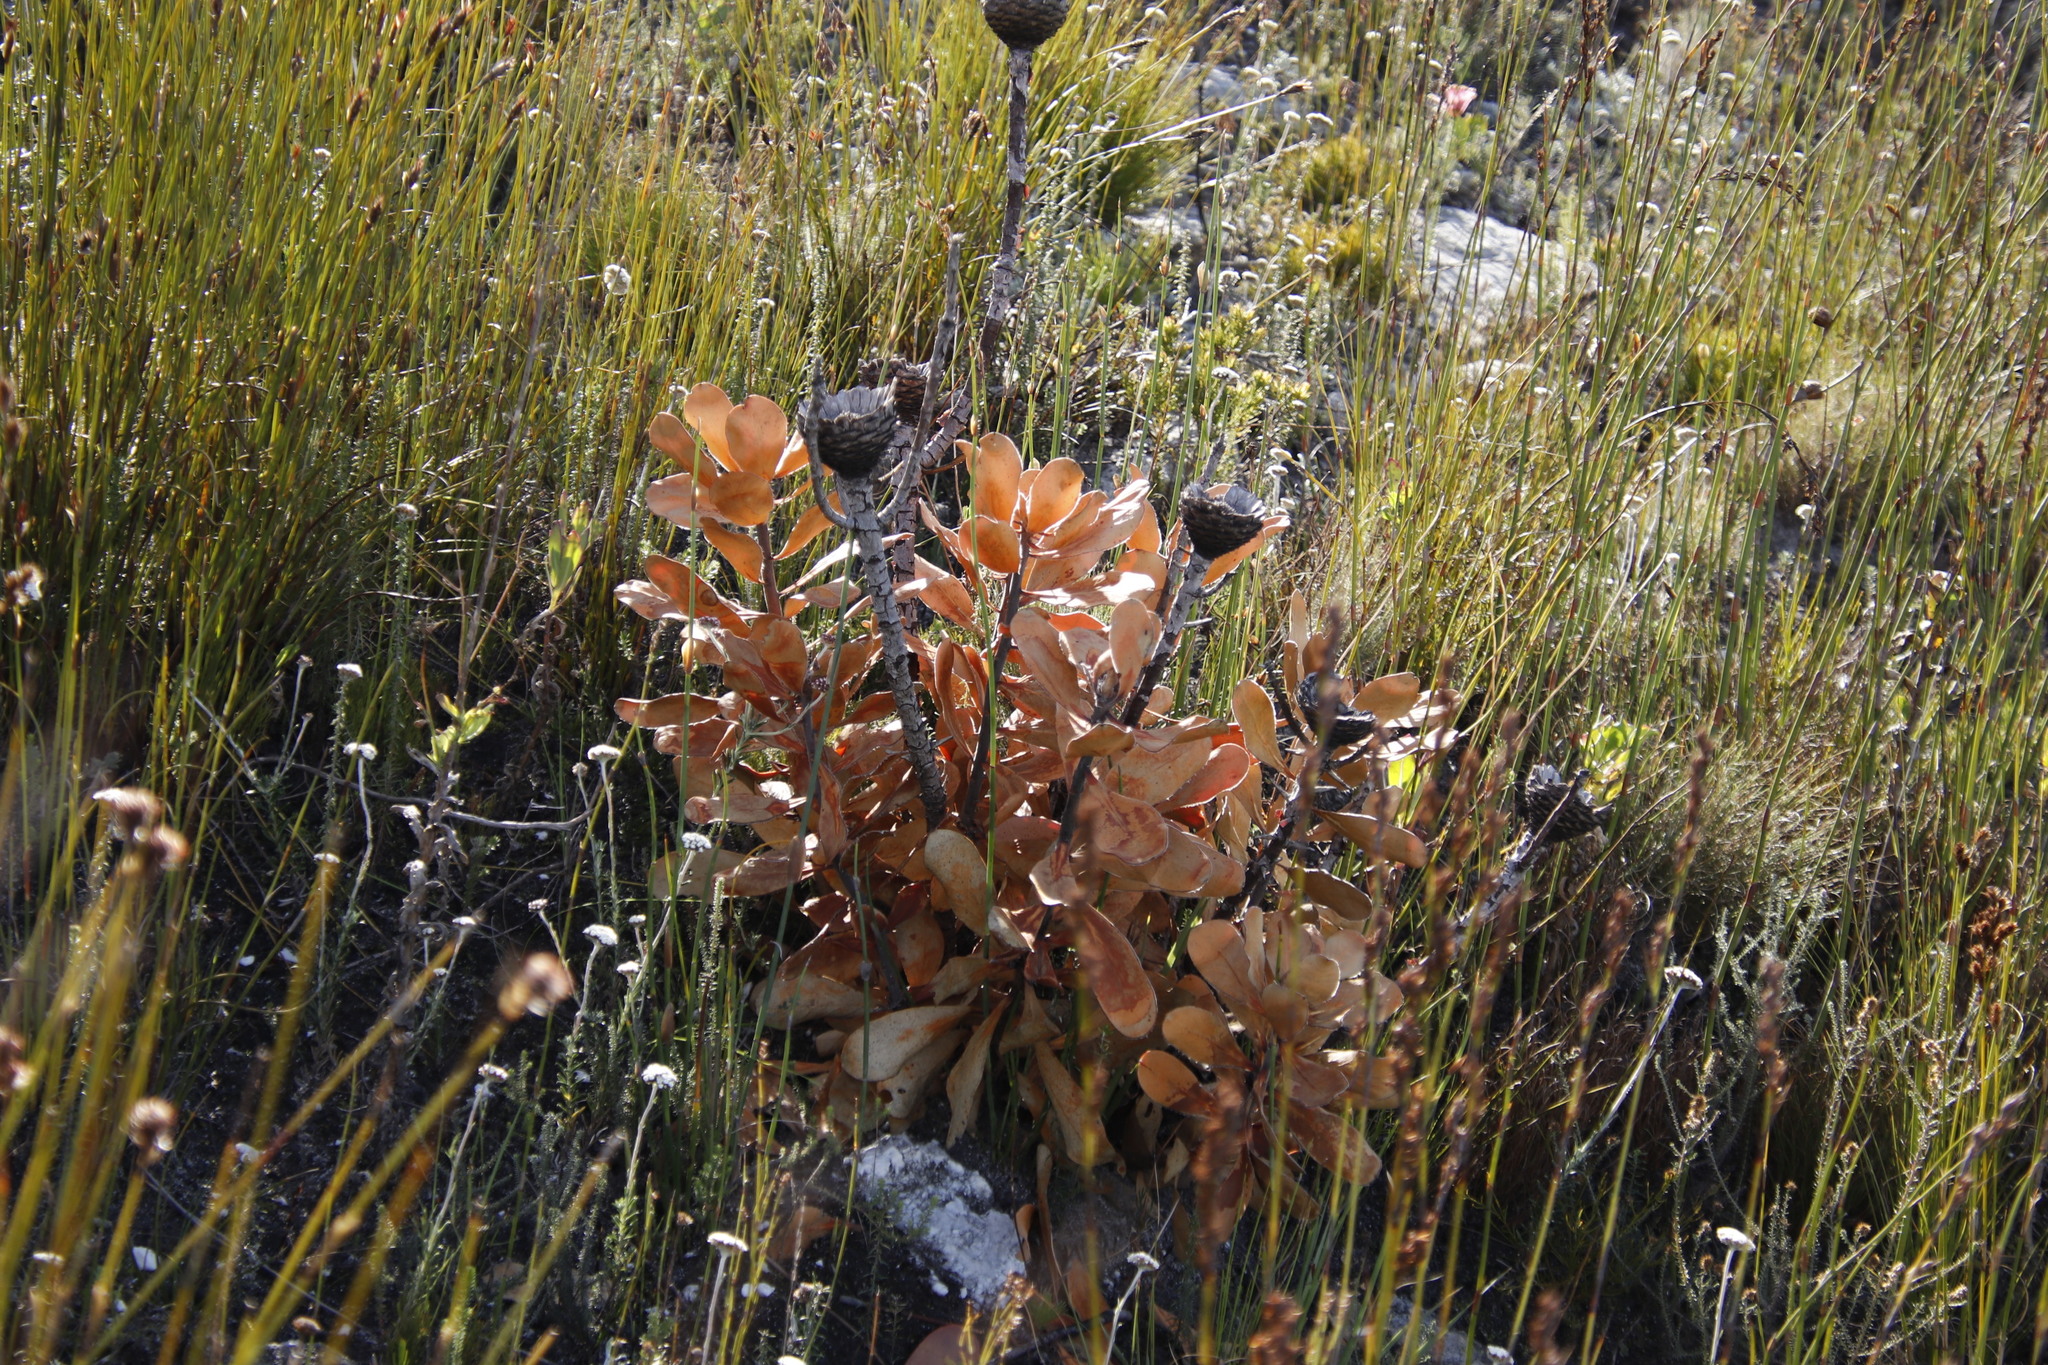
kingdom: Plantae
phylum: Tracheophyta
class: Magnoliopsida
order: Proteales
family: Proteaceae
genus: Protea
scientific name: Protea speciosa
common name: Brown-beard sugarbush
